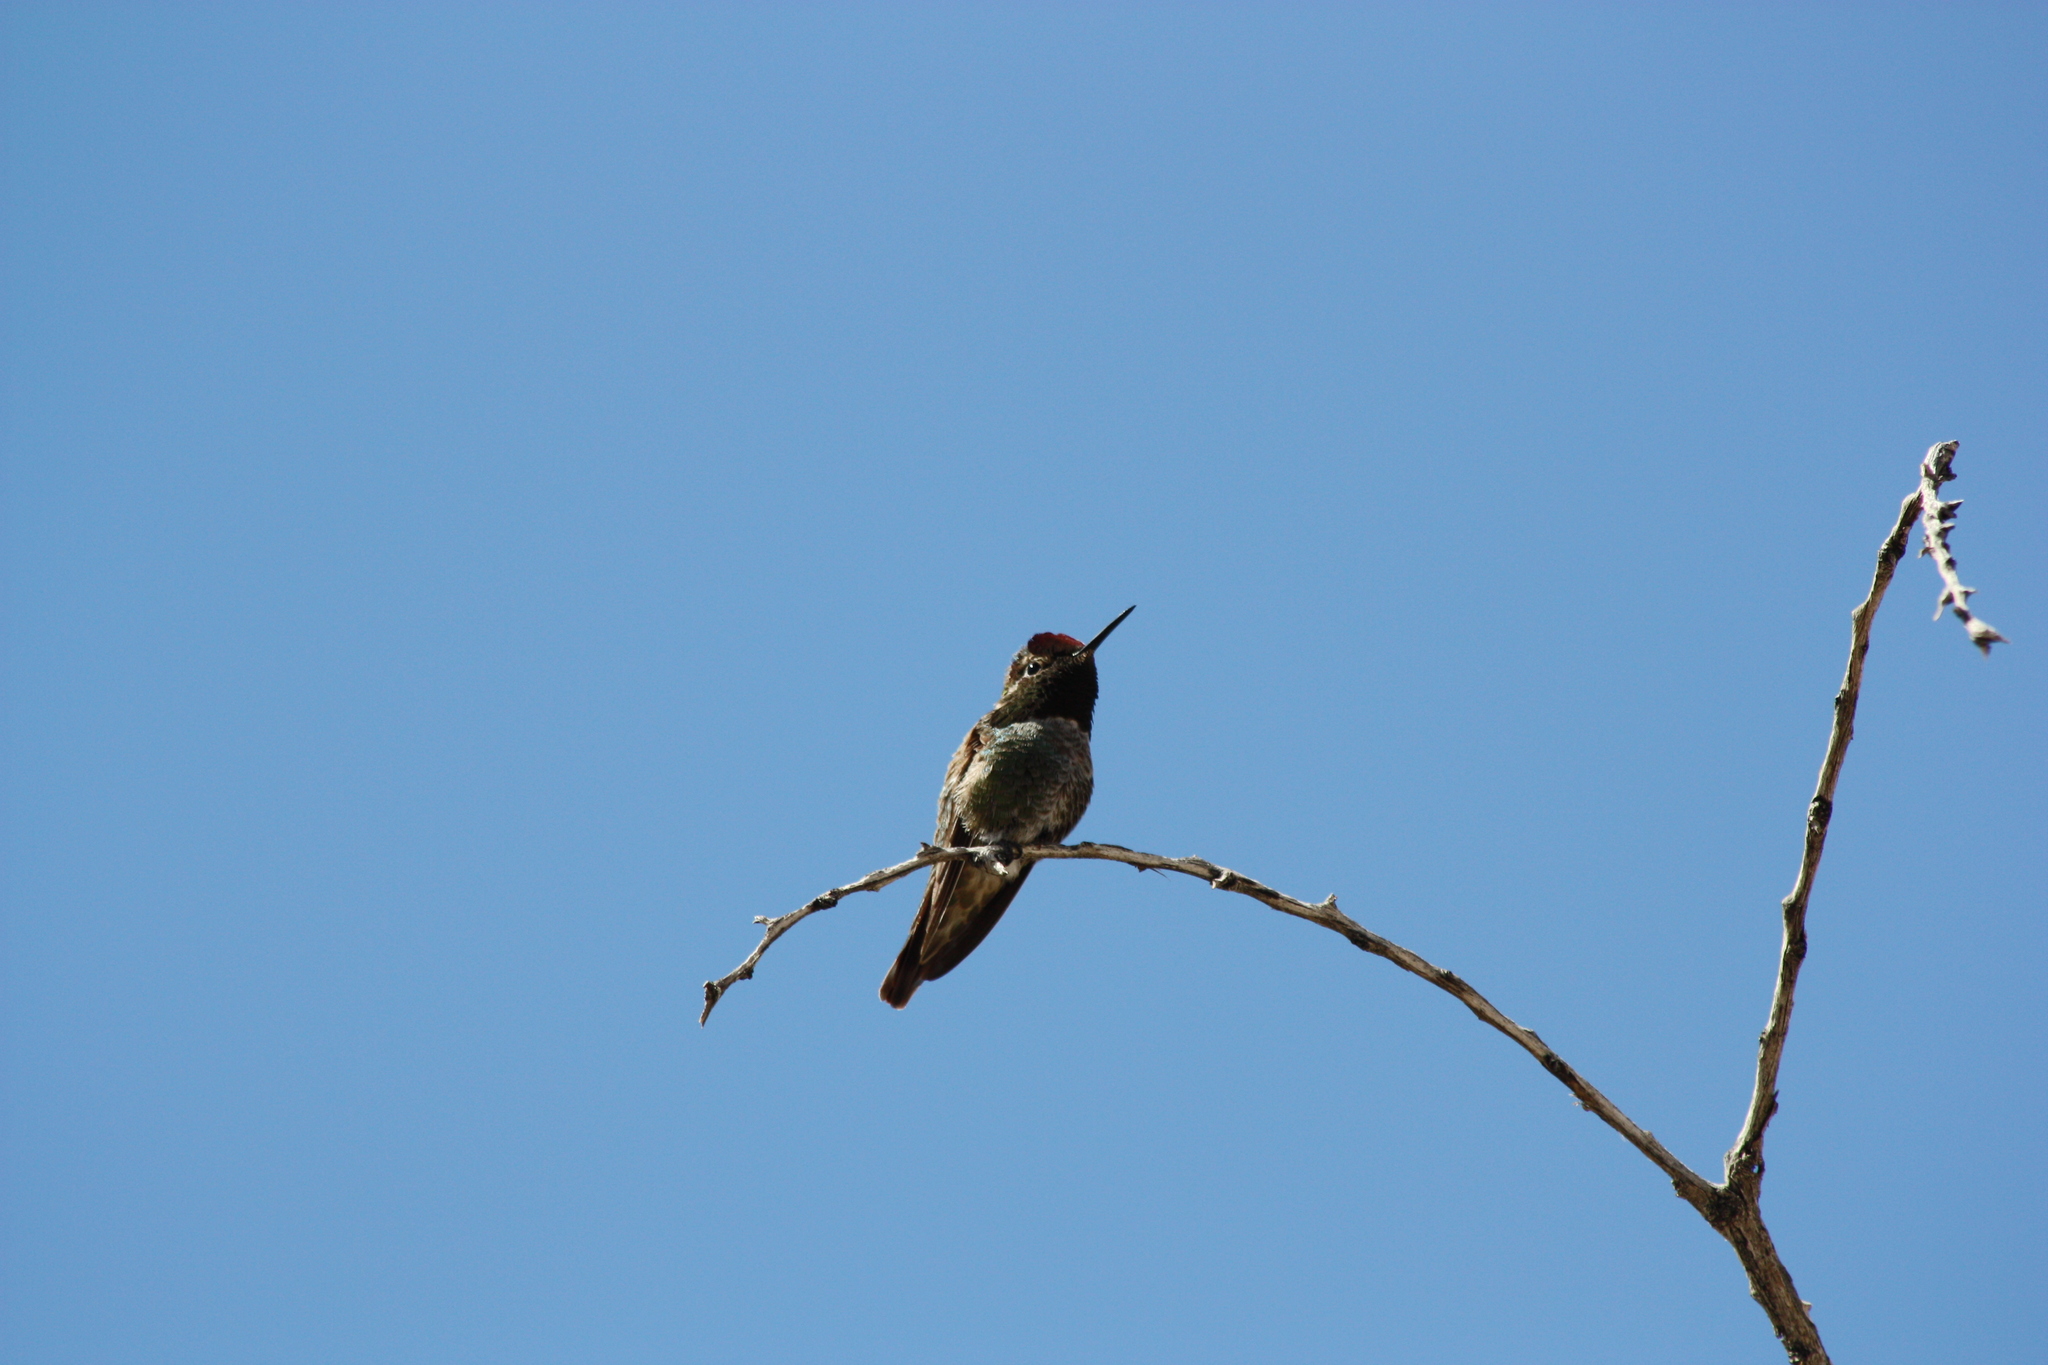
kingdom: Animalia
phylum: Chordata
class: Aves
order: Apodiformes
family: Trochilidae
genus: Calypte
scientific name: Calypte anna
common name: Anna's hummingbird
